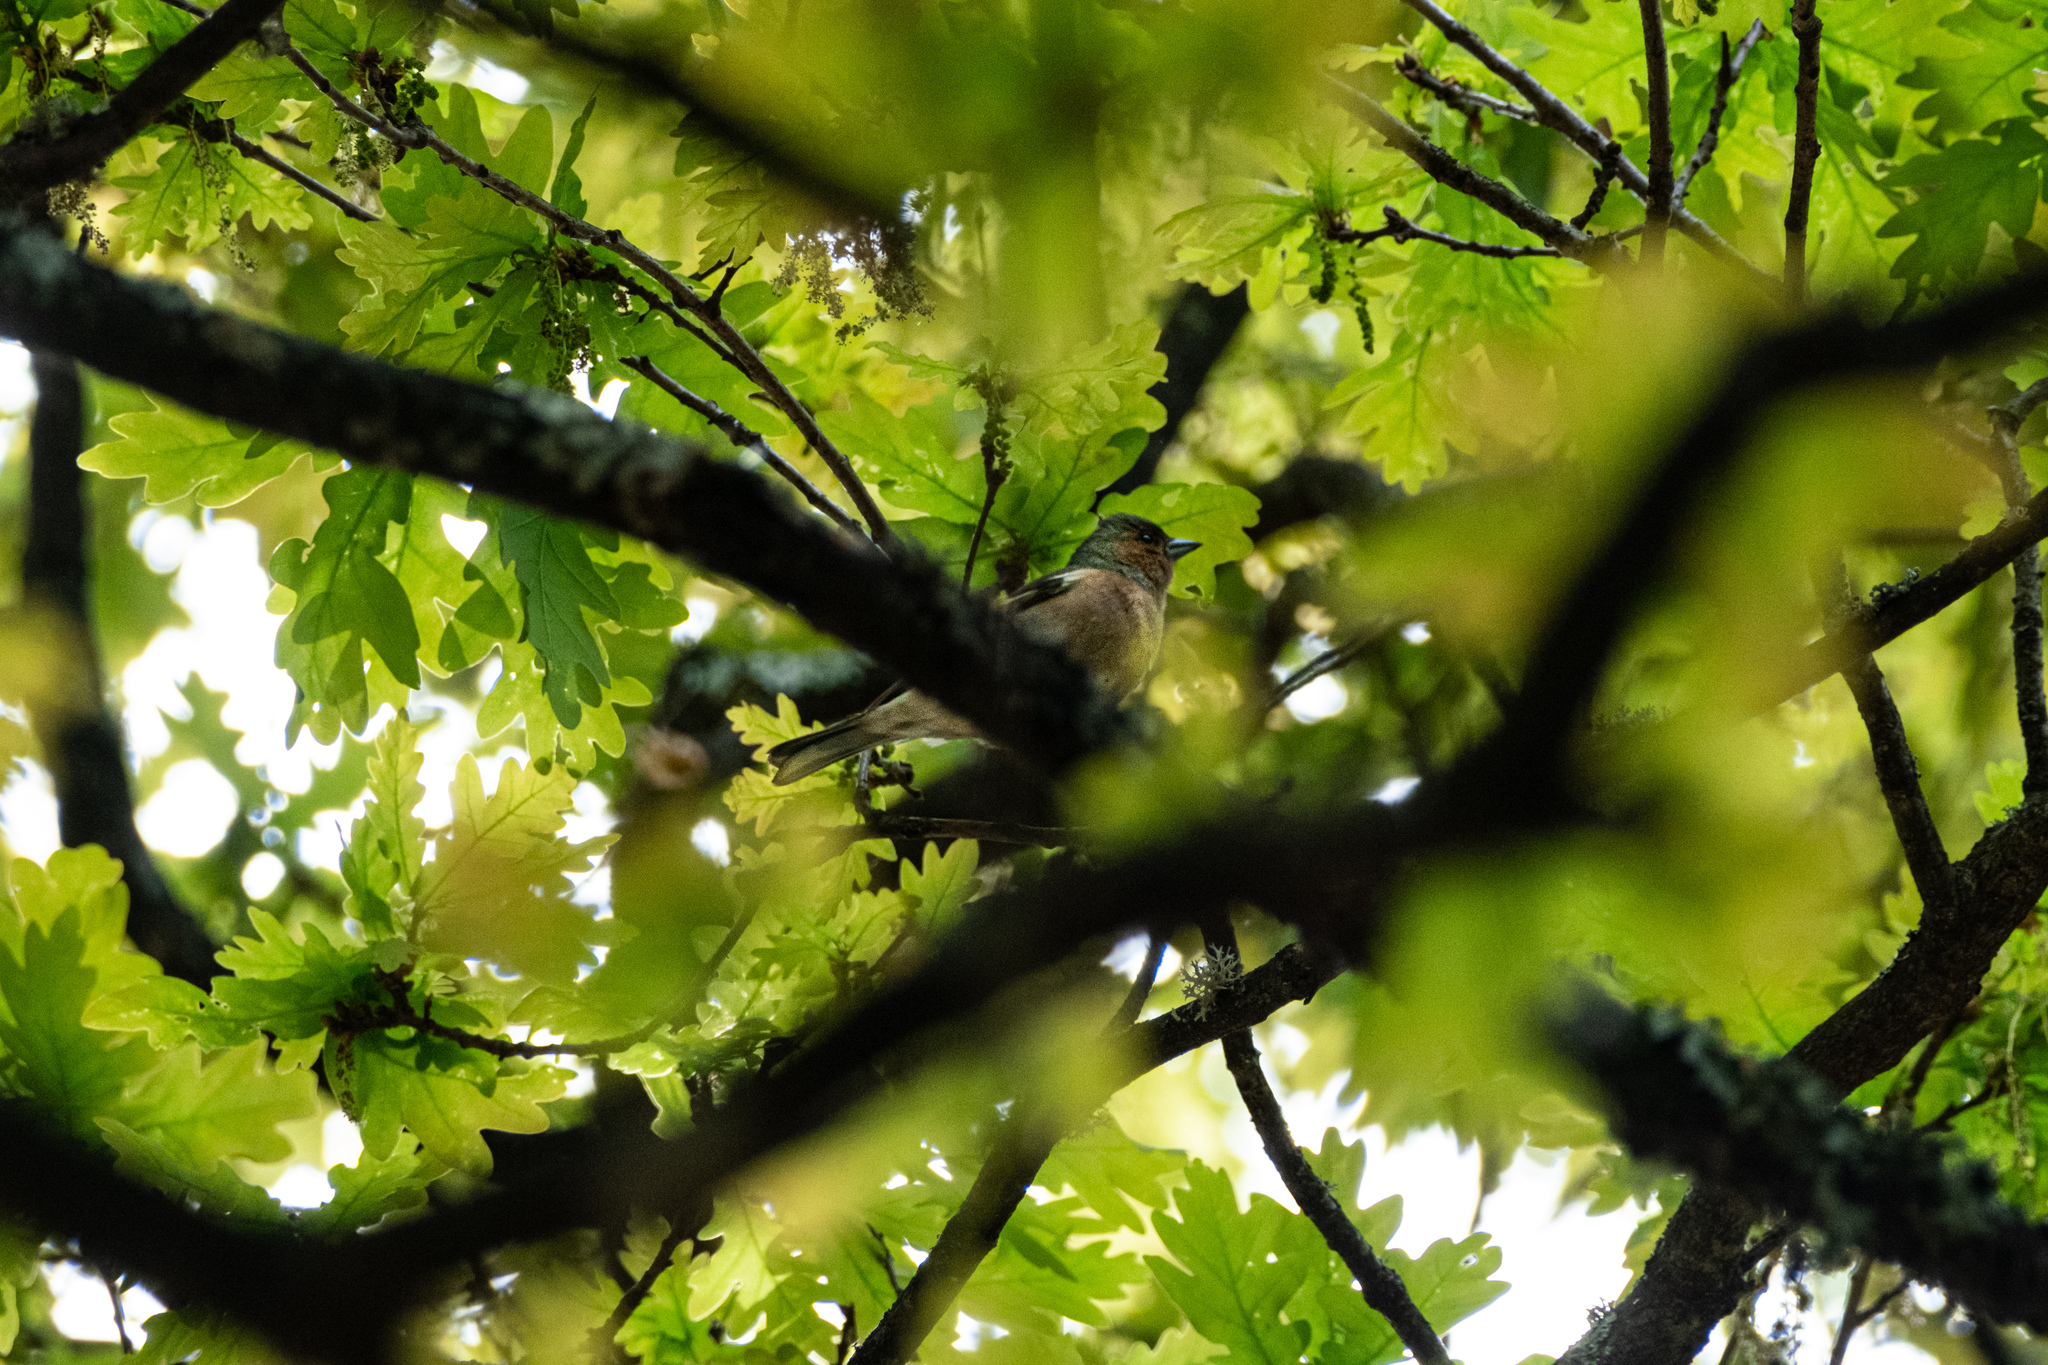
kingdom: Animalia
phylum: Chordata
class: Aves
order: Passeriformes
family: Fringillidae
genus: Fringilla
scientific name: Fringilla coelebs
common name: Common chaffinch
